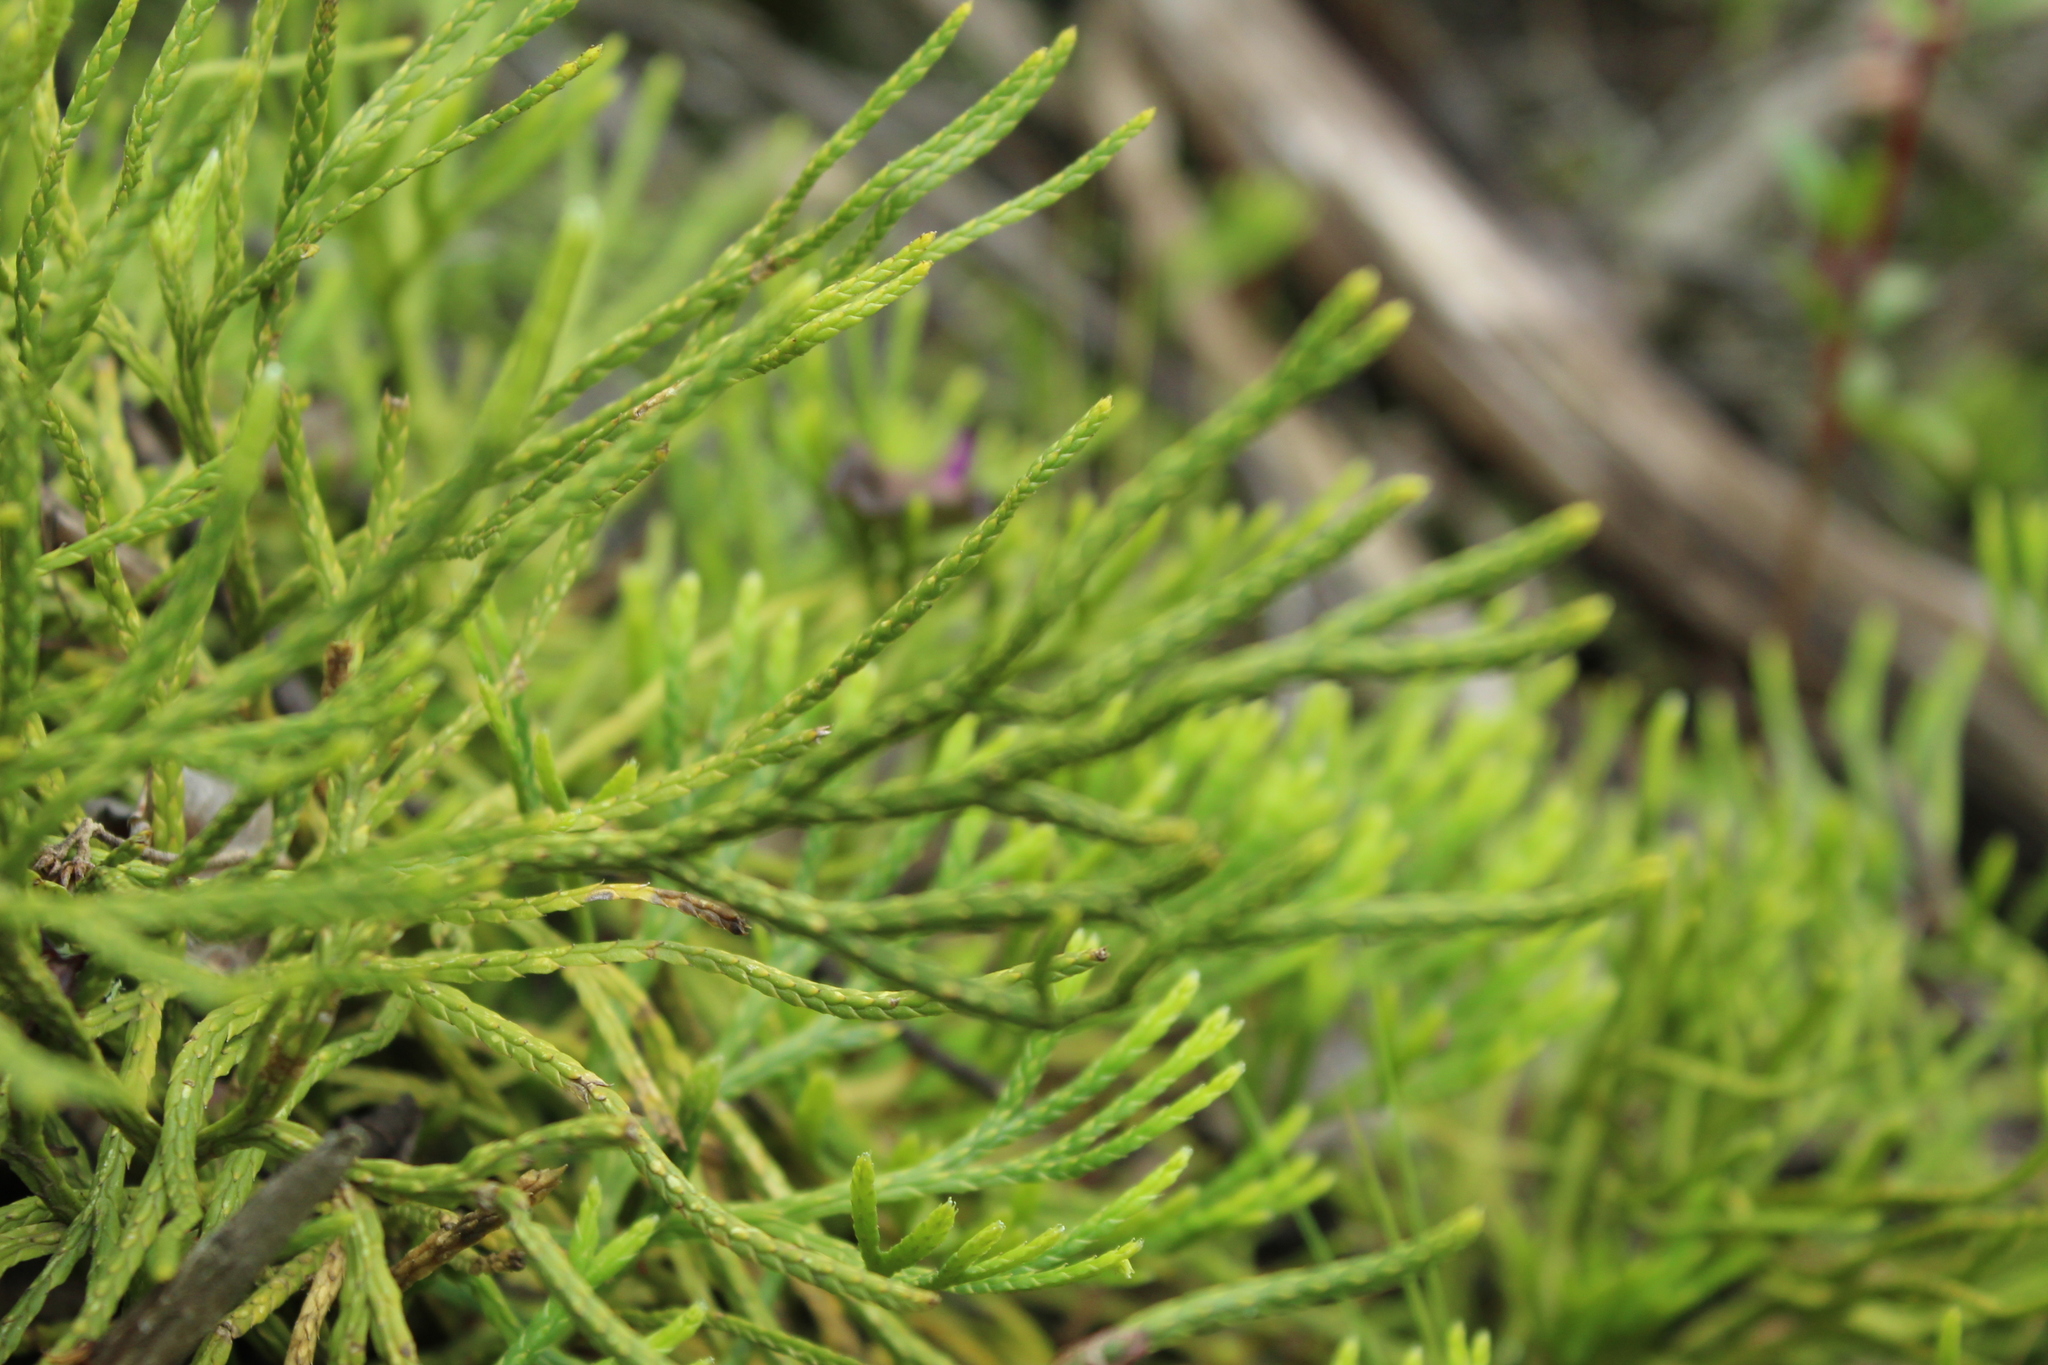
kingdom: Plantae
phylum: Tracheophyta
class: Lycopodiopsida
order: Lycopodiales
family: Lycopodiaceae
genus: Diphasiastrum
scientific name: Diphasiastrum thyoides
